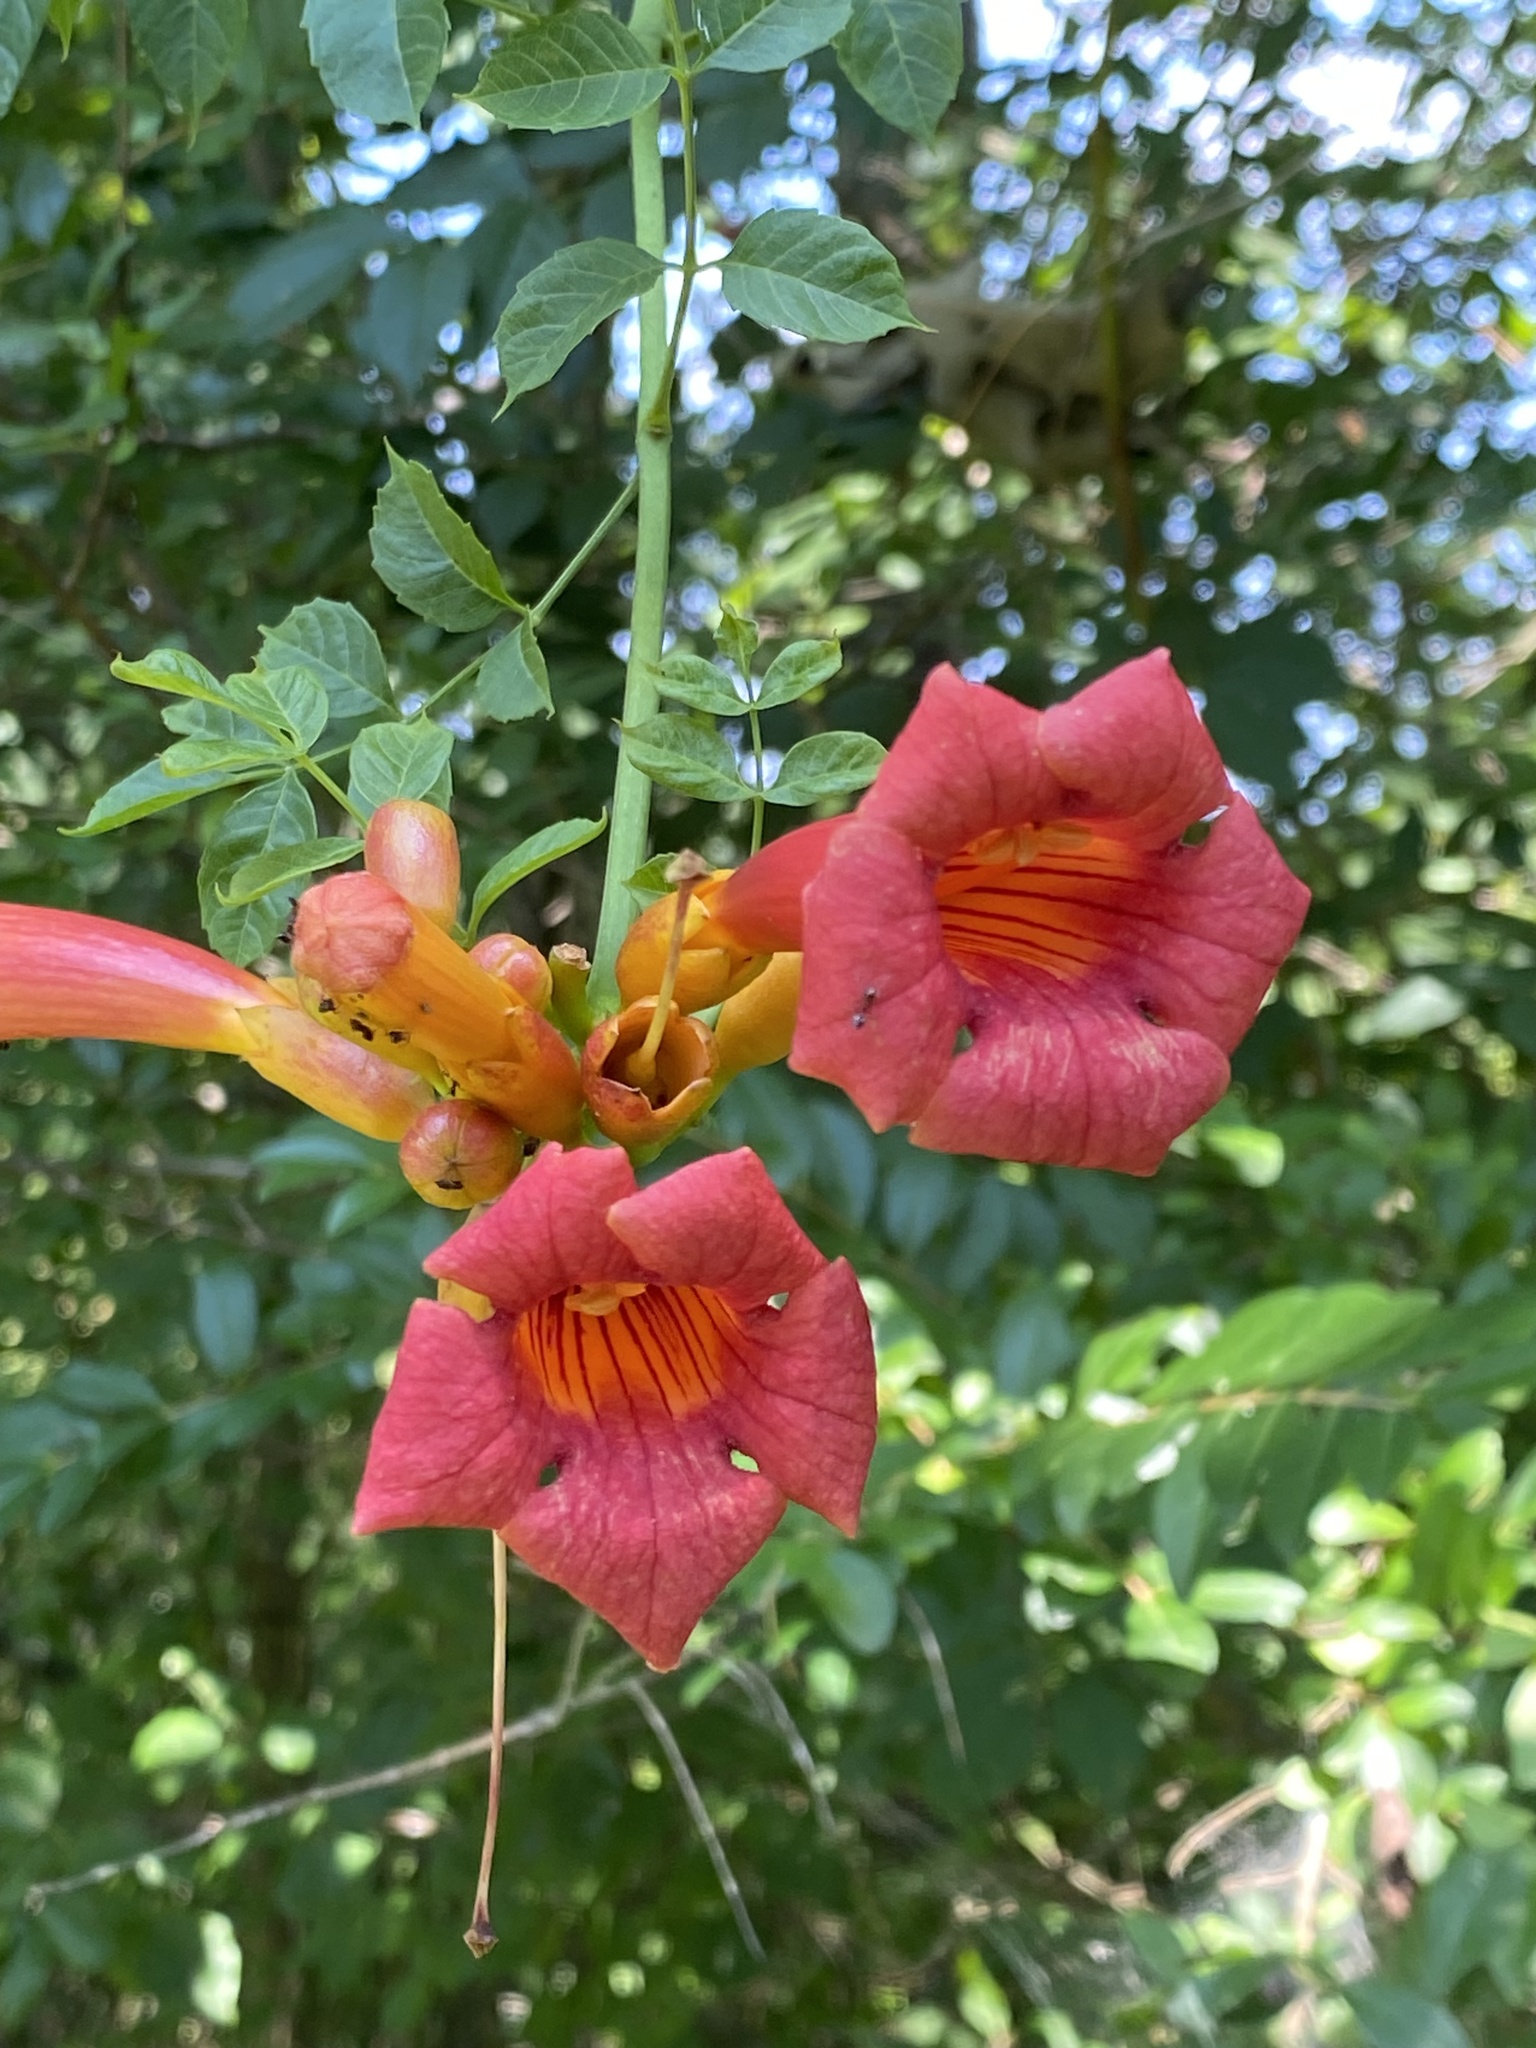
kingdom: Plantae
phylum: Tracheophyta
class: Magnoliopsida
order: Lamiales
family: Bignoniaceae
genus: Campsis
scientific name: Campsis radicans
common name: Trumpet-creeper
